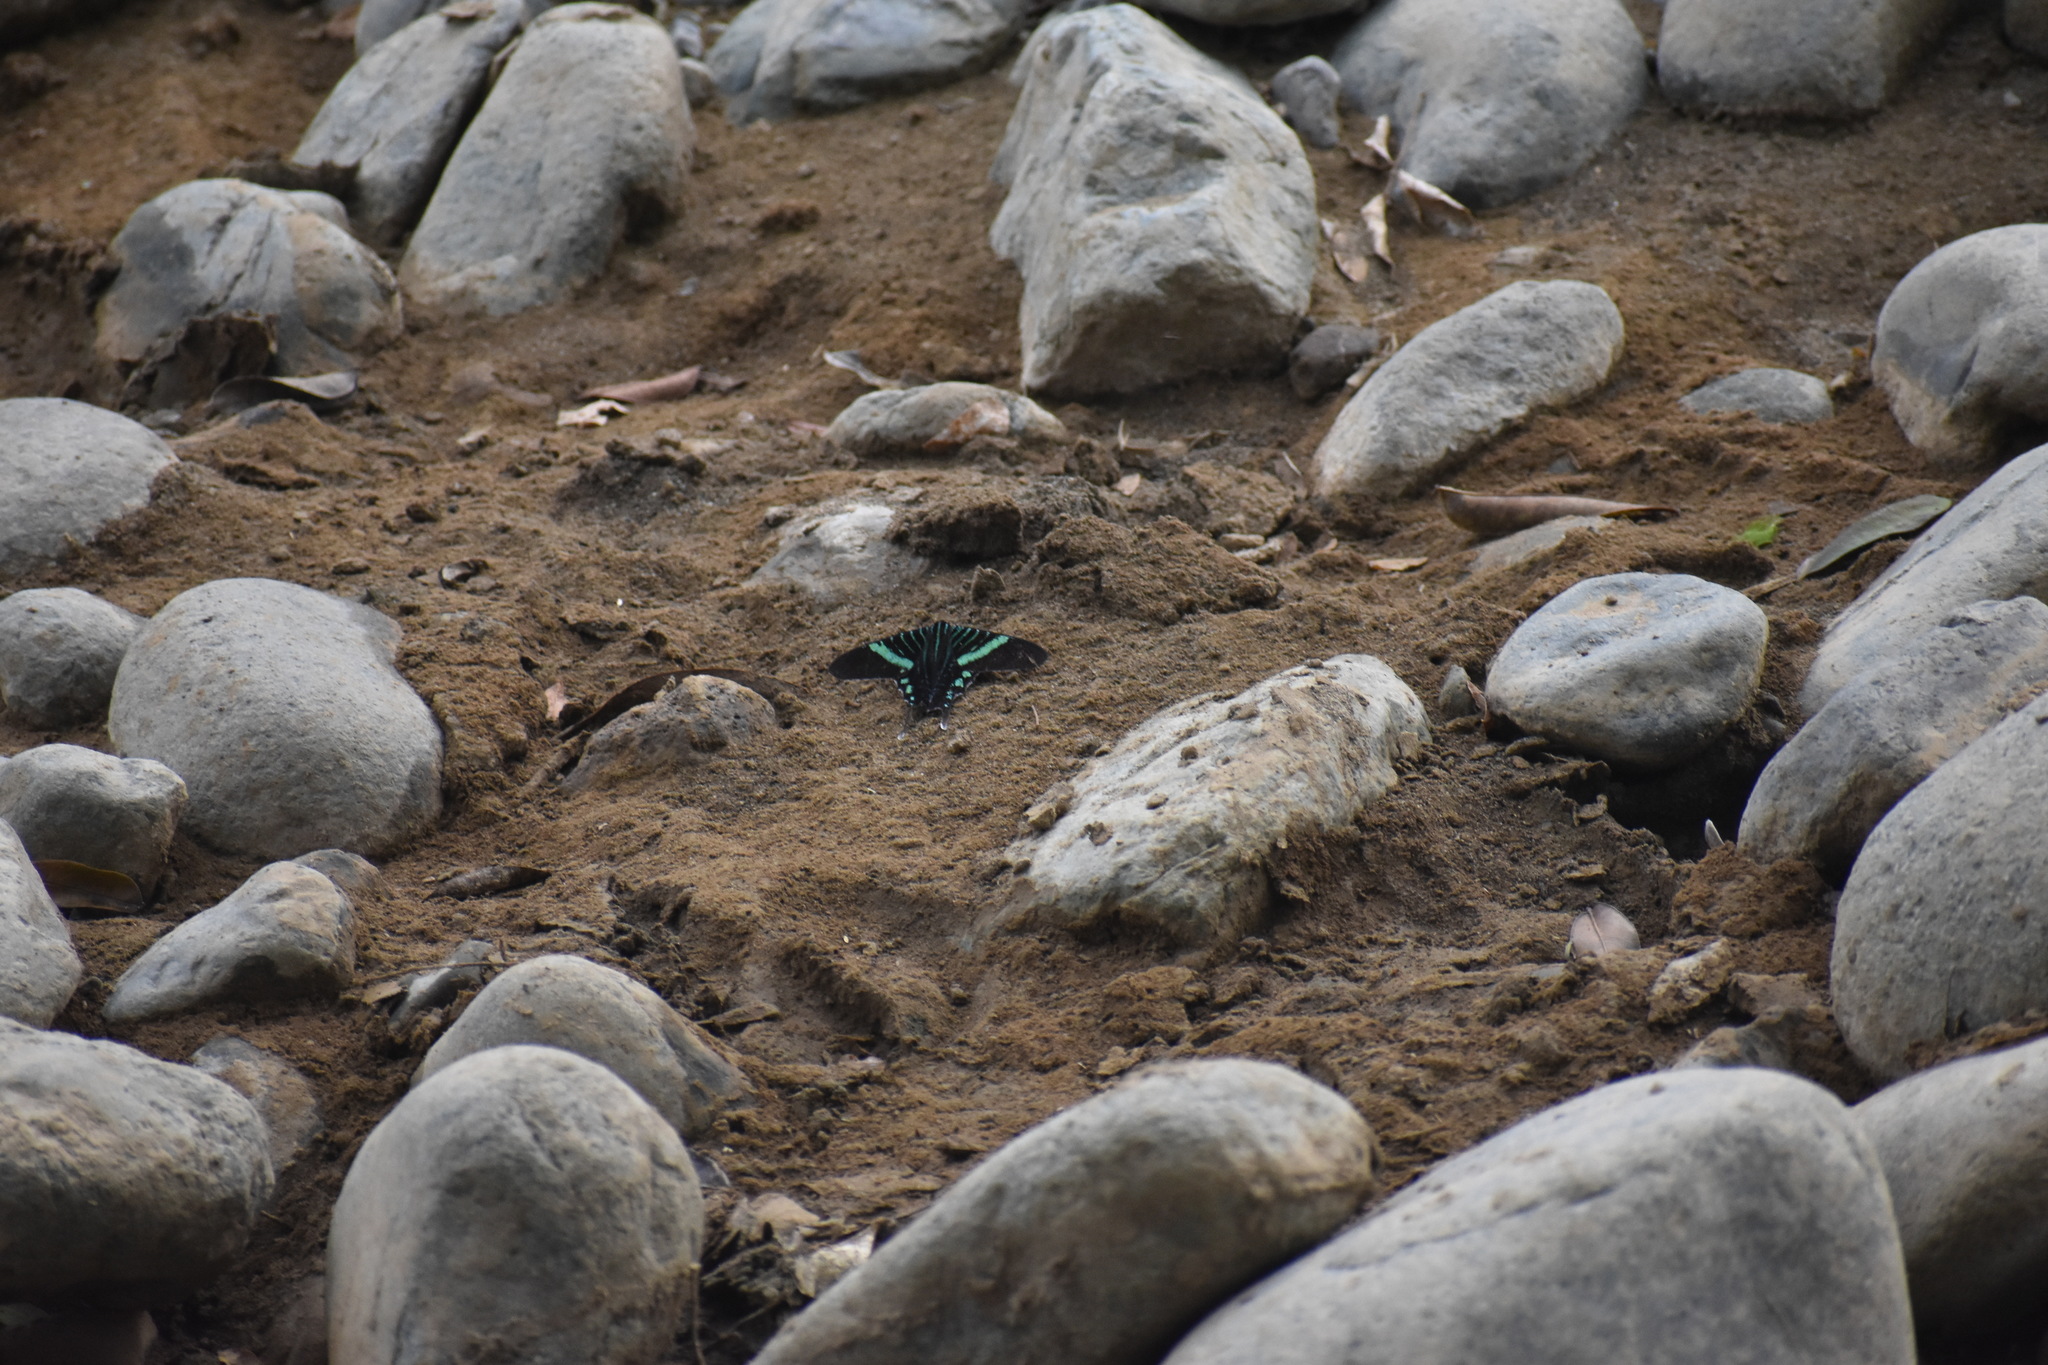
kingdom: Animalia
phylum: Arthropoda
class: Insecta
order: Lepidoptera
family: Uraniidae
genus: Urania
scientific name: Urania fulgens
